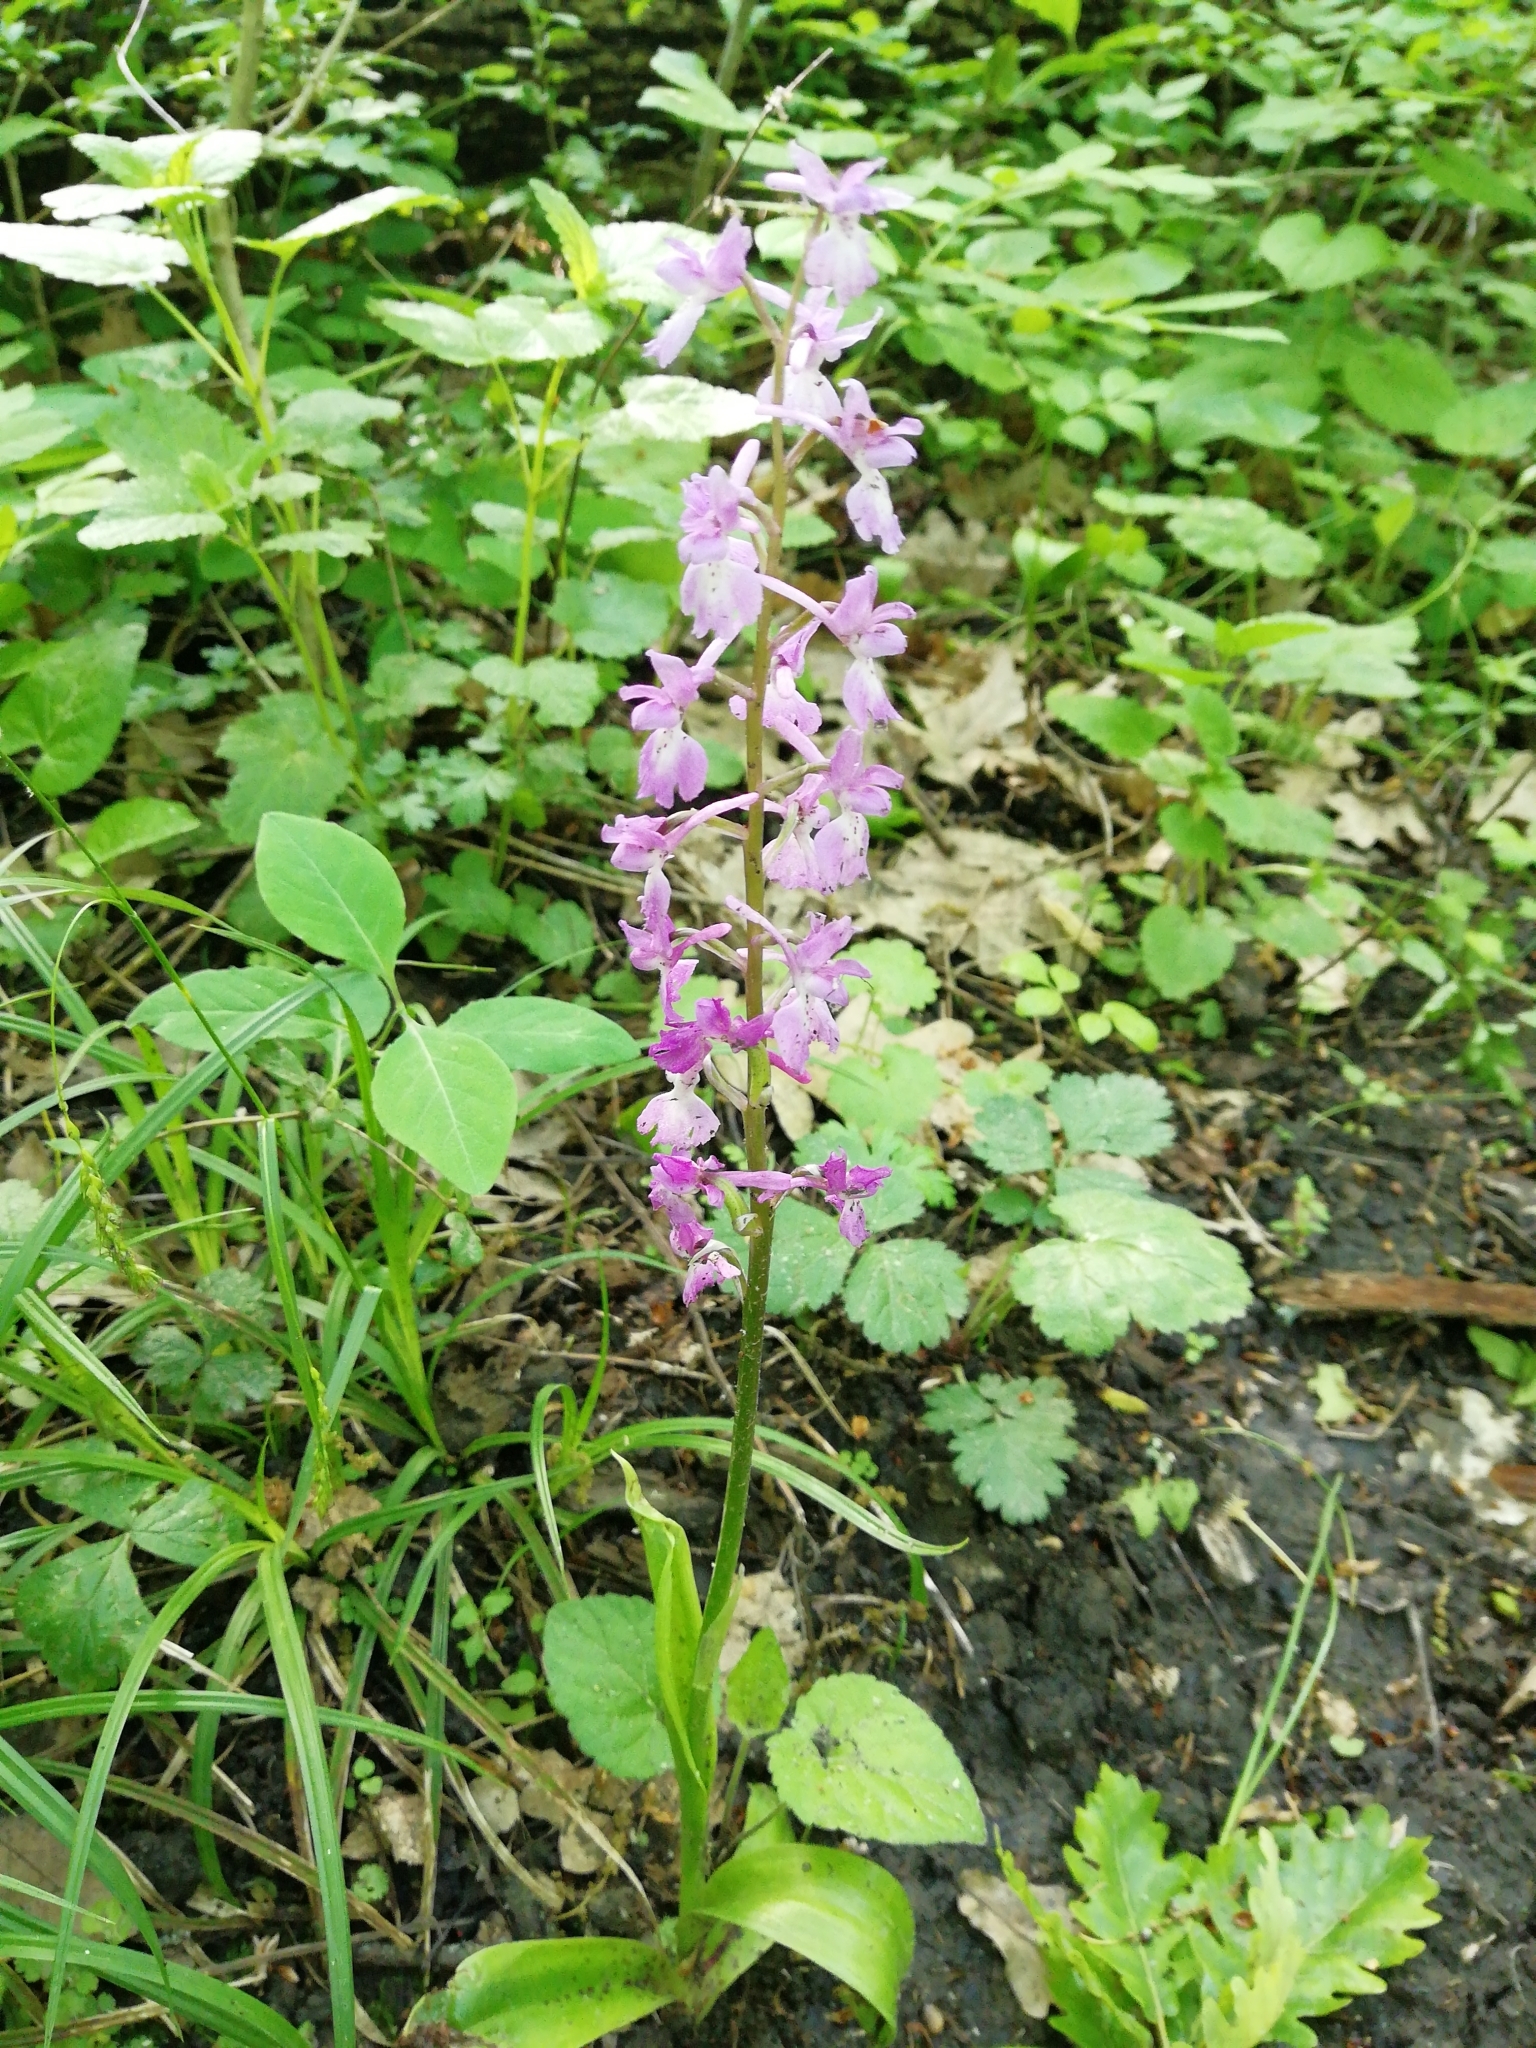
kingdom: Plantae
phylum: Tracheophyta
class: Liliopsida
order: Asparagales
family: Orchidaceae
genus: Orchis
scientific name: Orchis mascula
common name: Early-purple orchid
